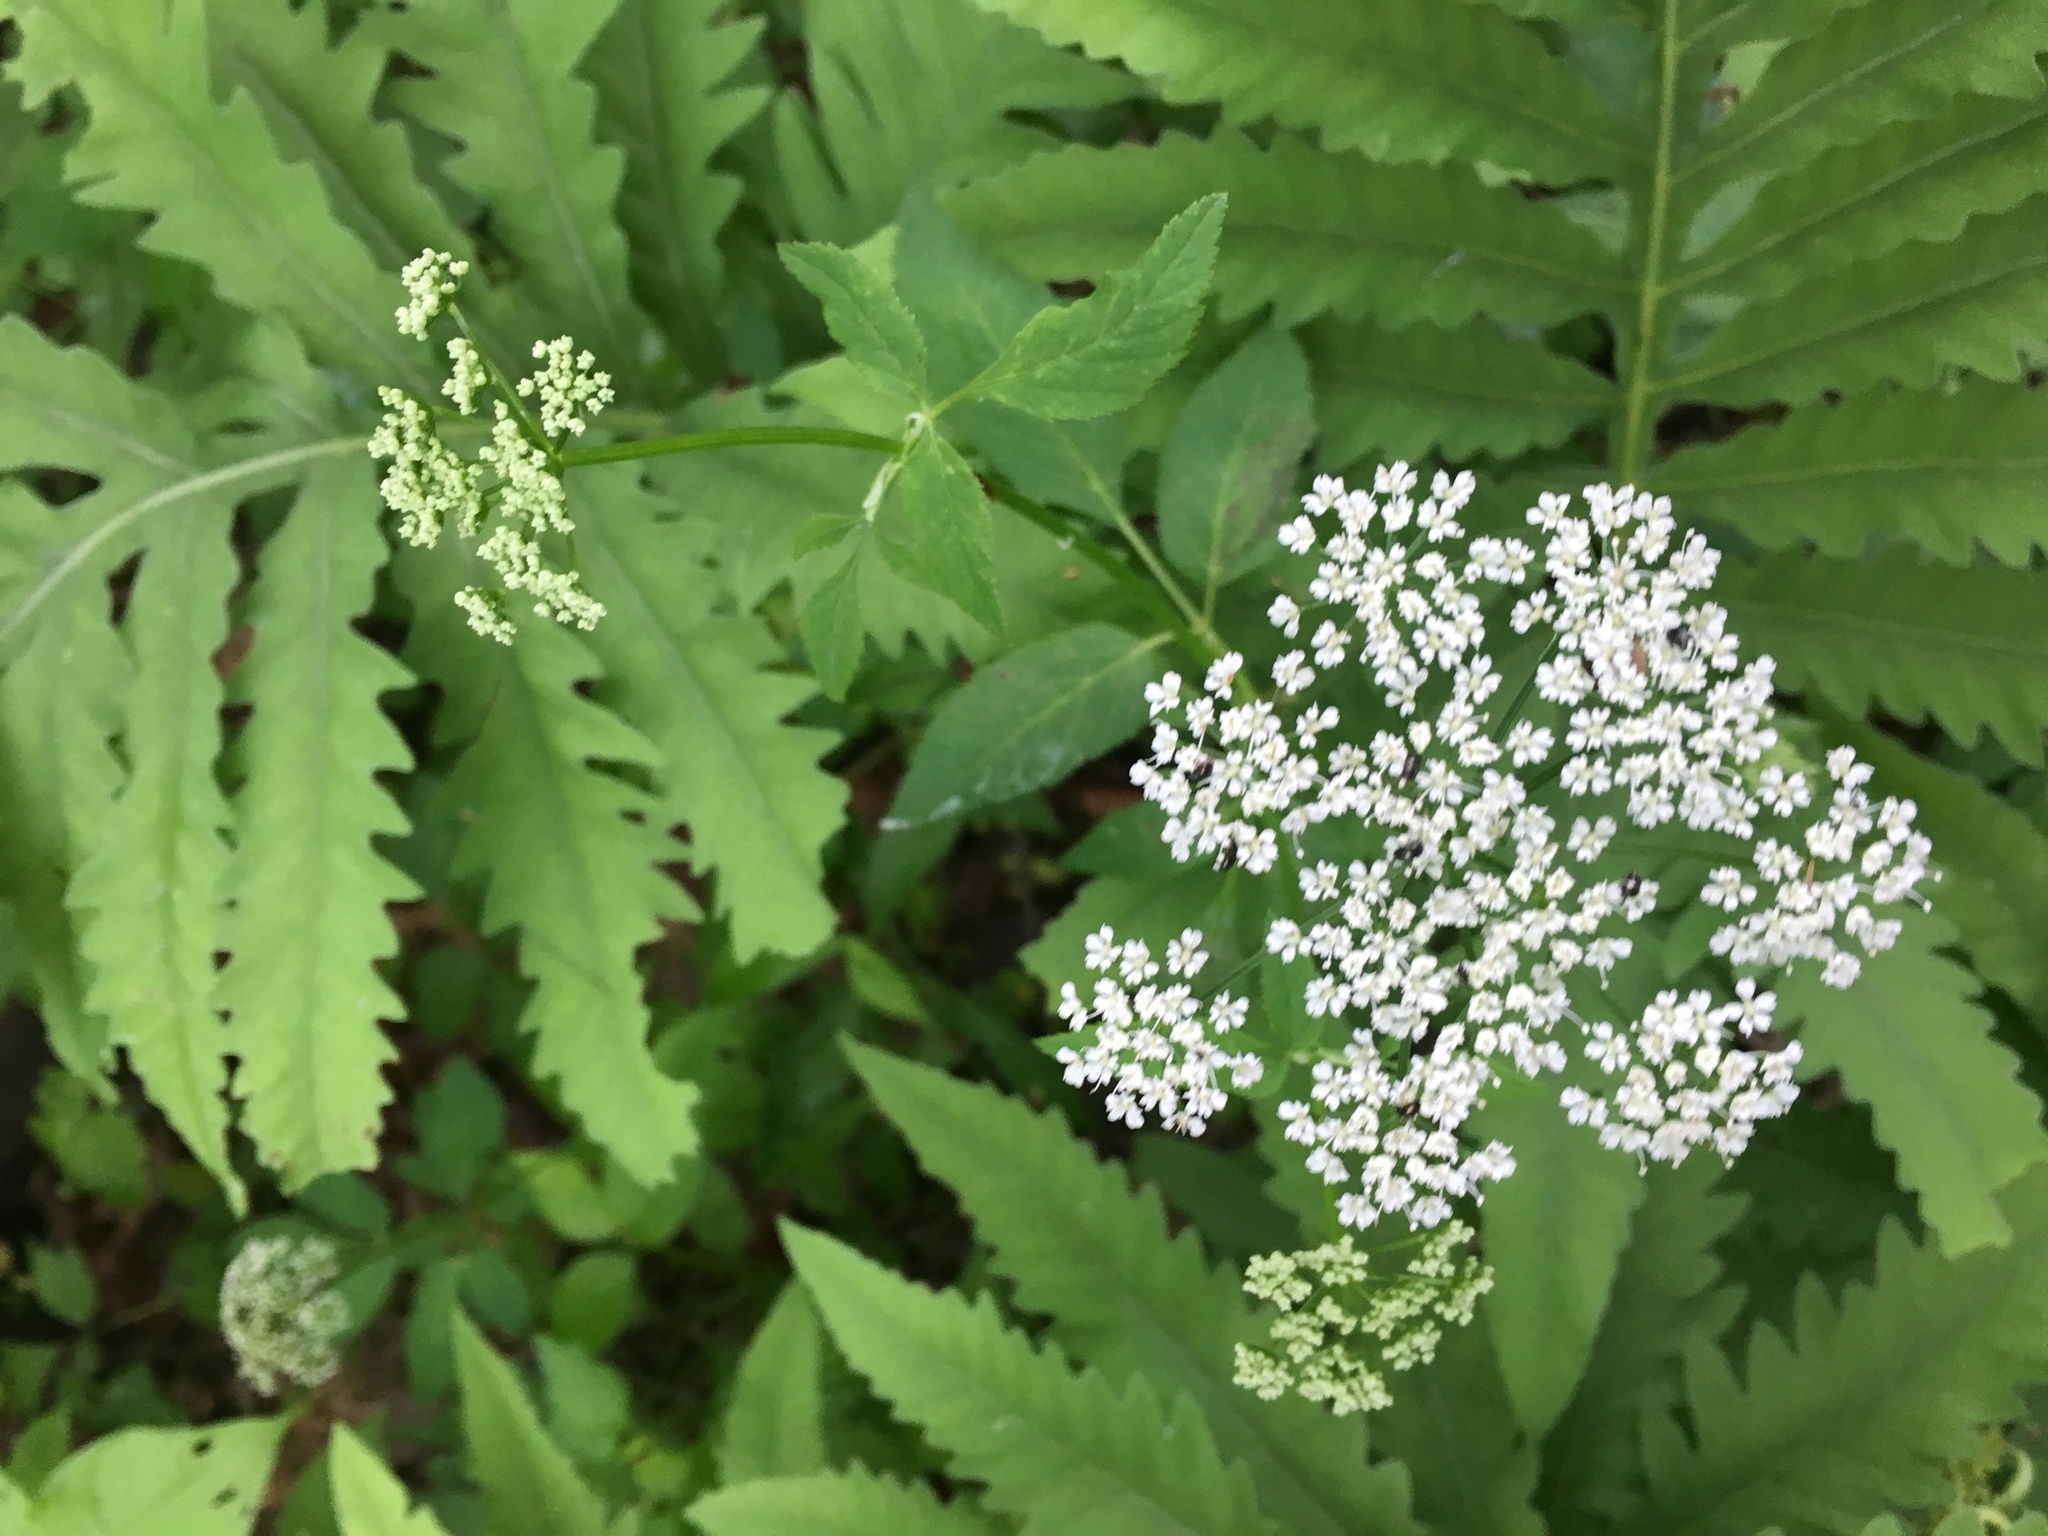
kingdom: Plantae
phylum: Tracheophyta
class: Magnoliopsida
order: Apiales
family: Apiaceae
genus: Aegopodium
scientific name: Aegopodium podagraria
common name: Ground-elder
